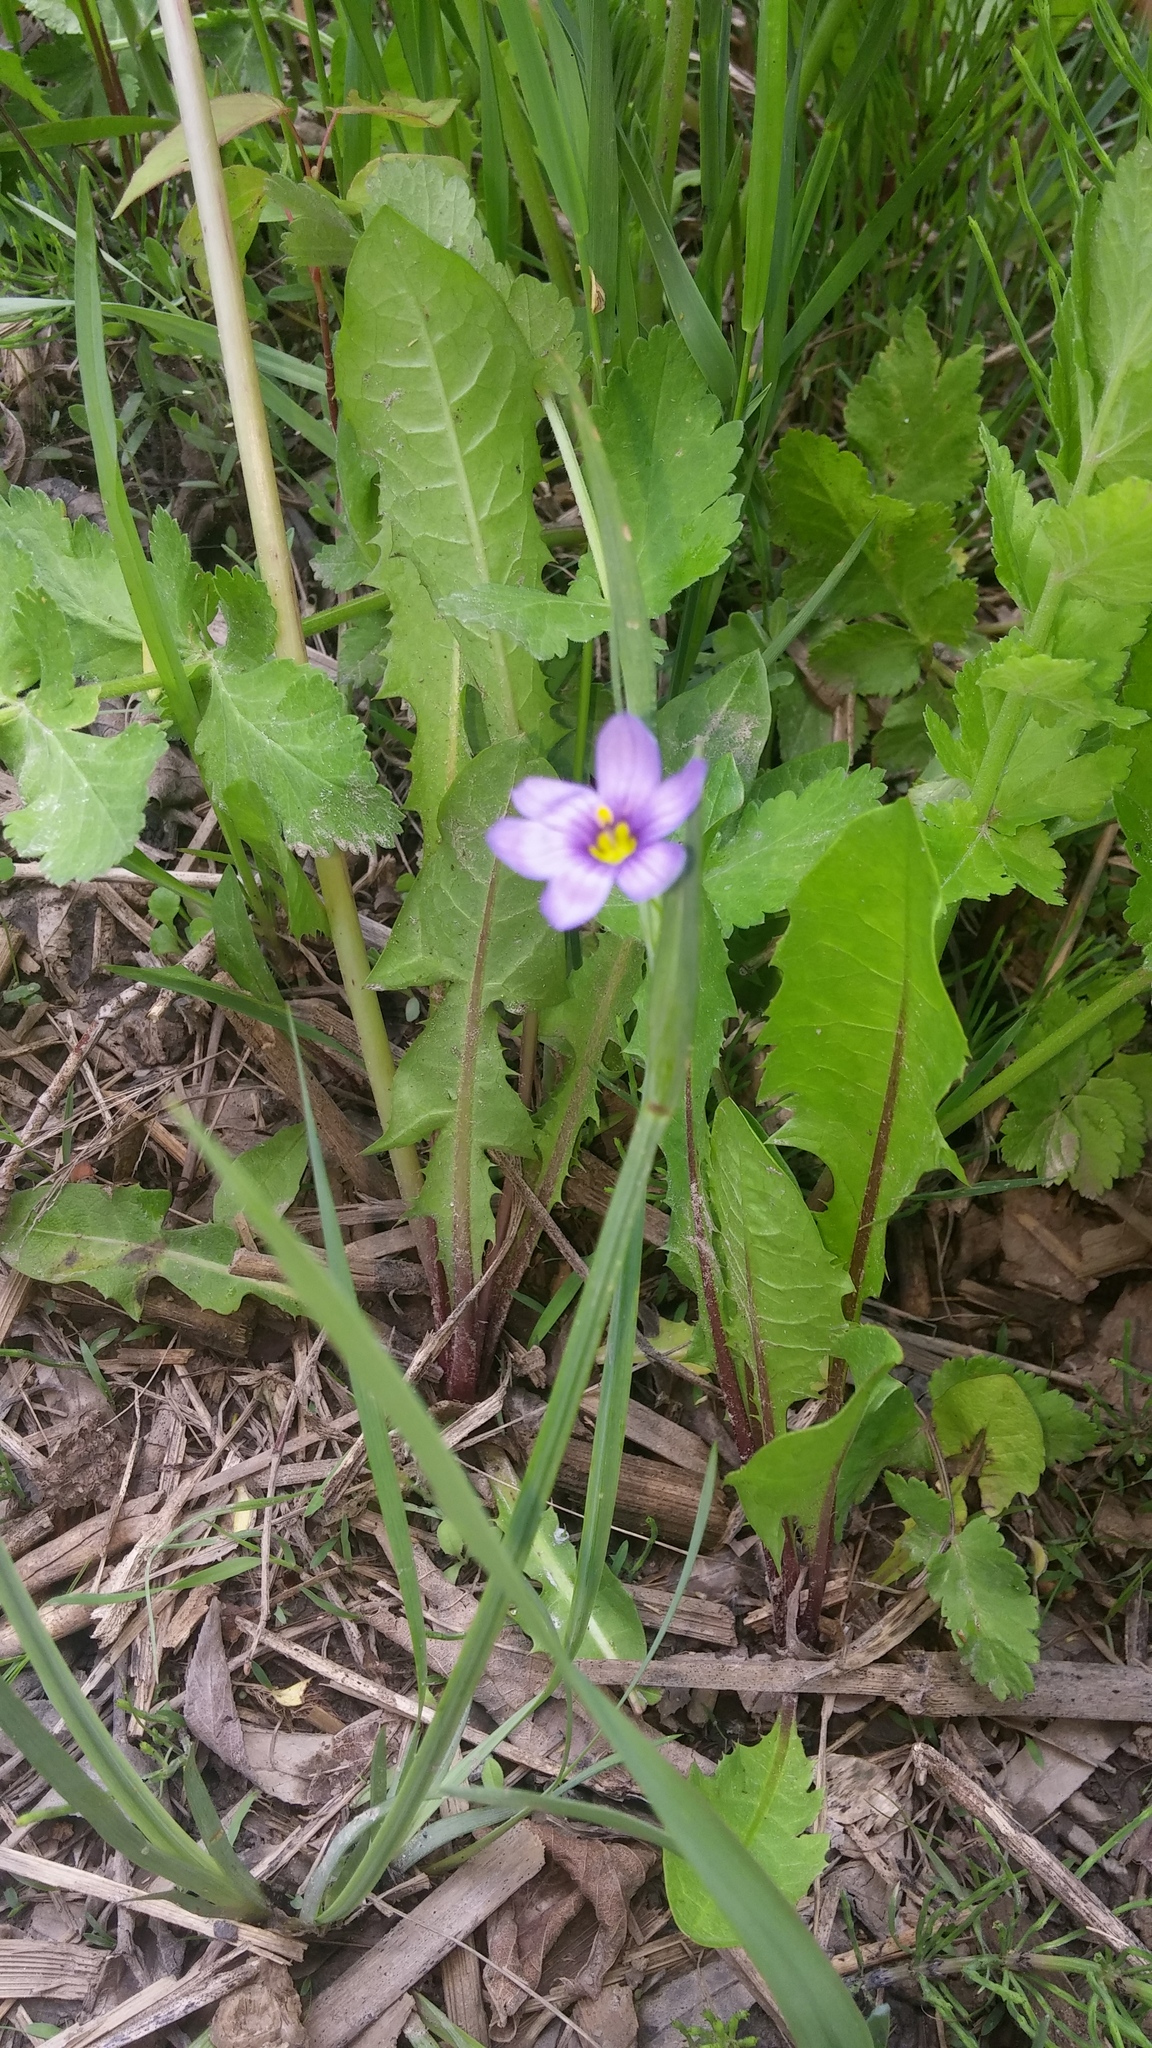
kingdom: Plantae
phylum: Tracheophyta
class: Liliopsida
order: Asparagales
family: Iridaceae
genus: Sisyrinchium
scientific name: Sisyrinchium montanum
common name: American blue-eyed-grass
